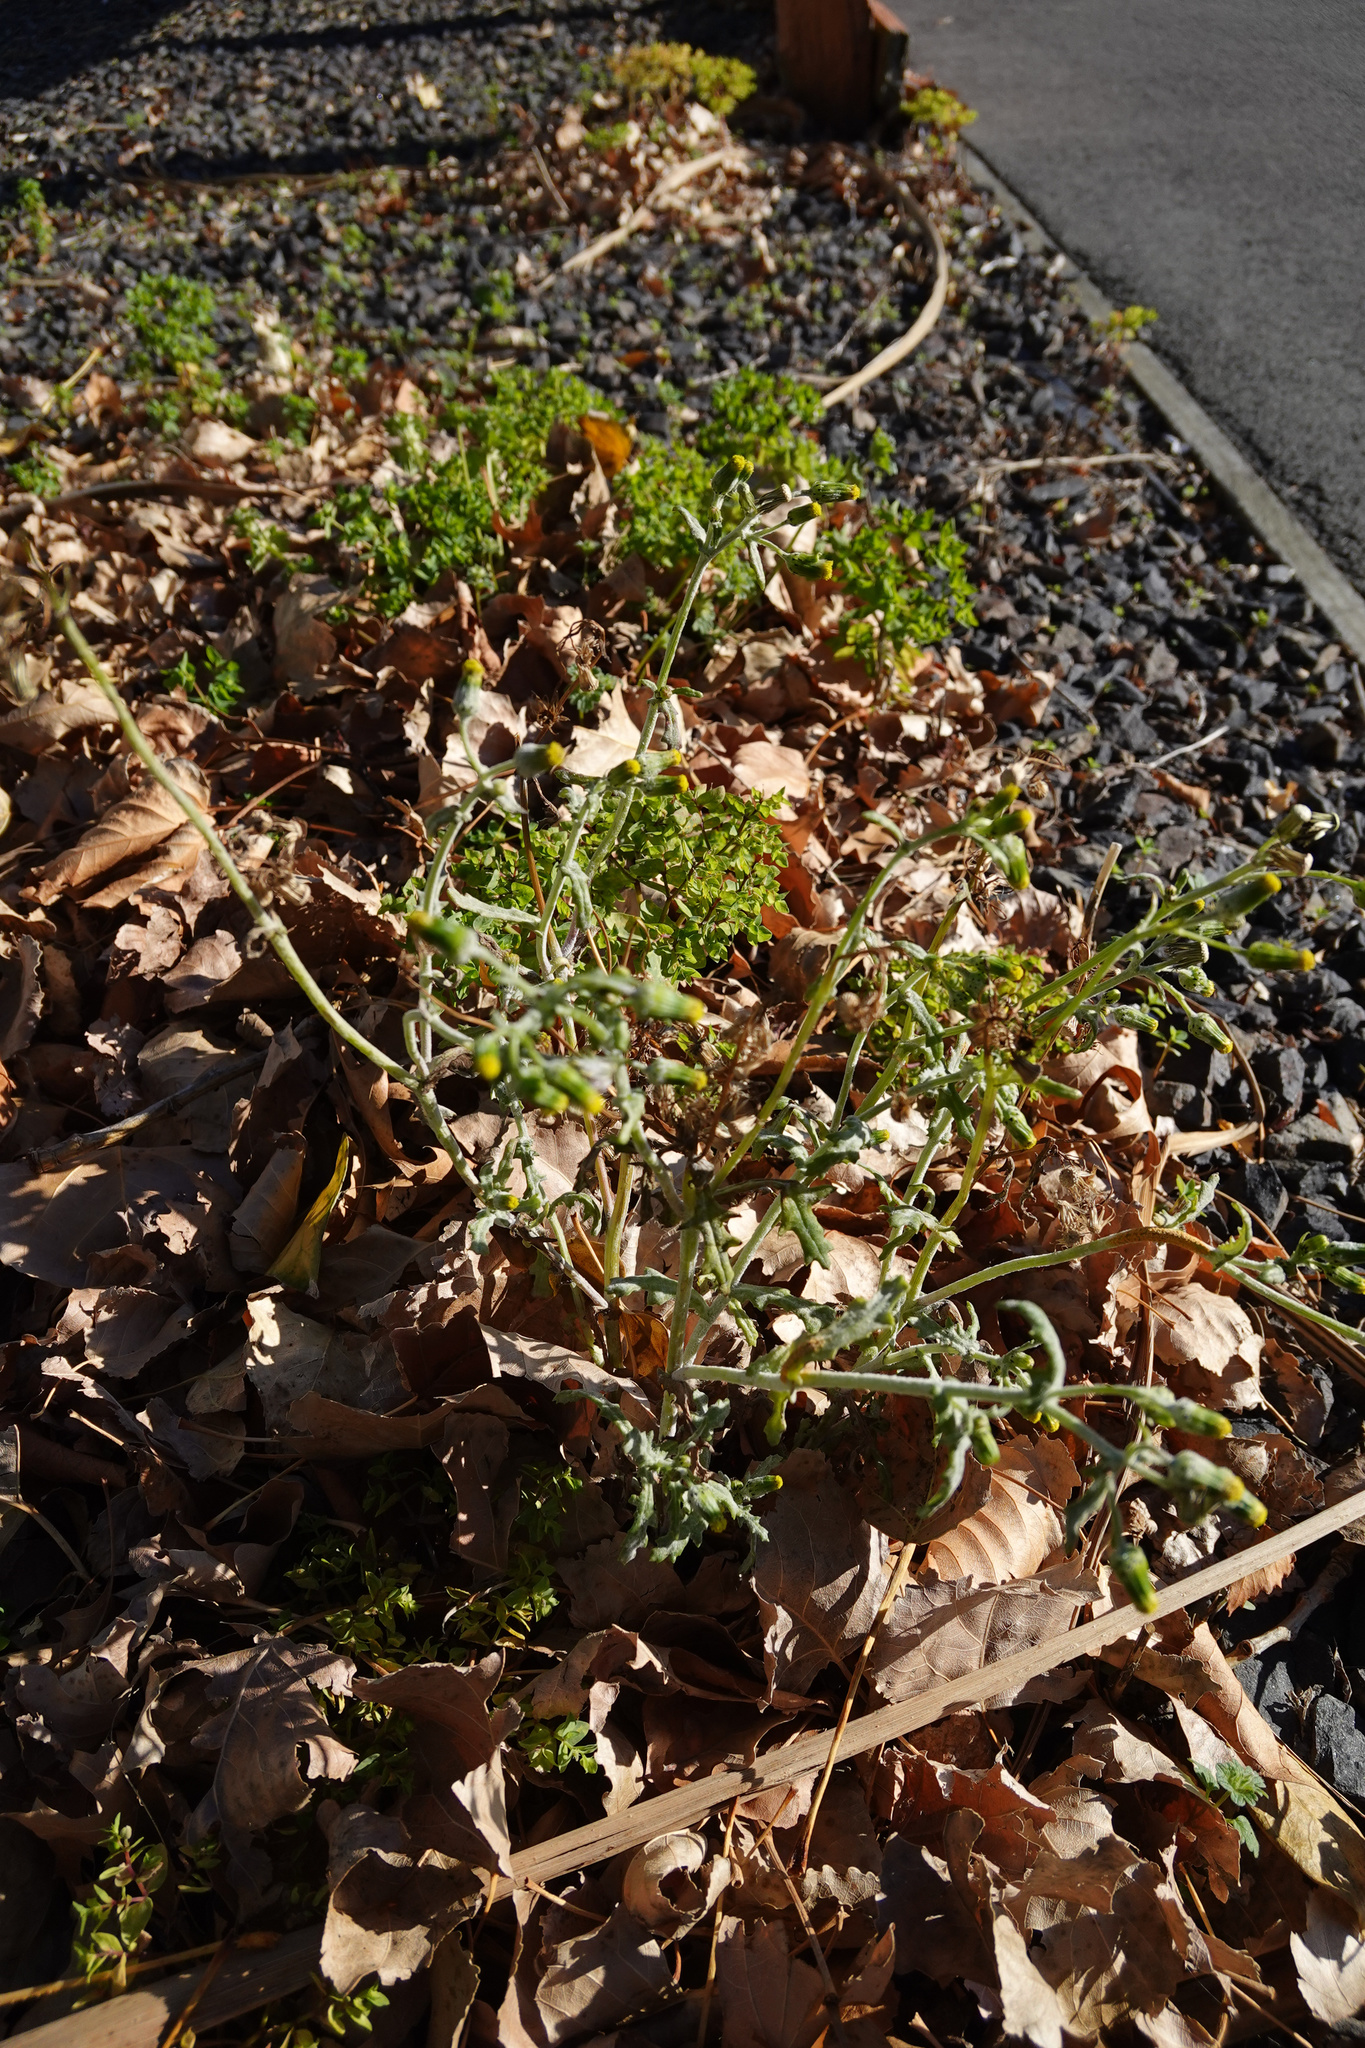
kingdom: Plantae
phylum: Tracheophyta
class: Magnoliopsida
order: Asterales
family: Asteraceae
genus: Senecio
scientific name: Senecio vulgaris
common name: Old-man-in-the-spring
